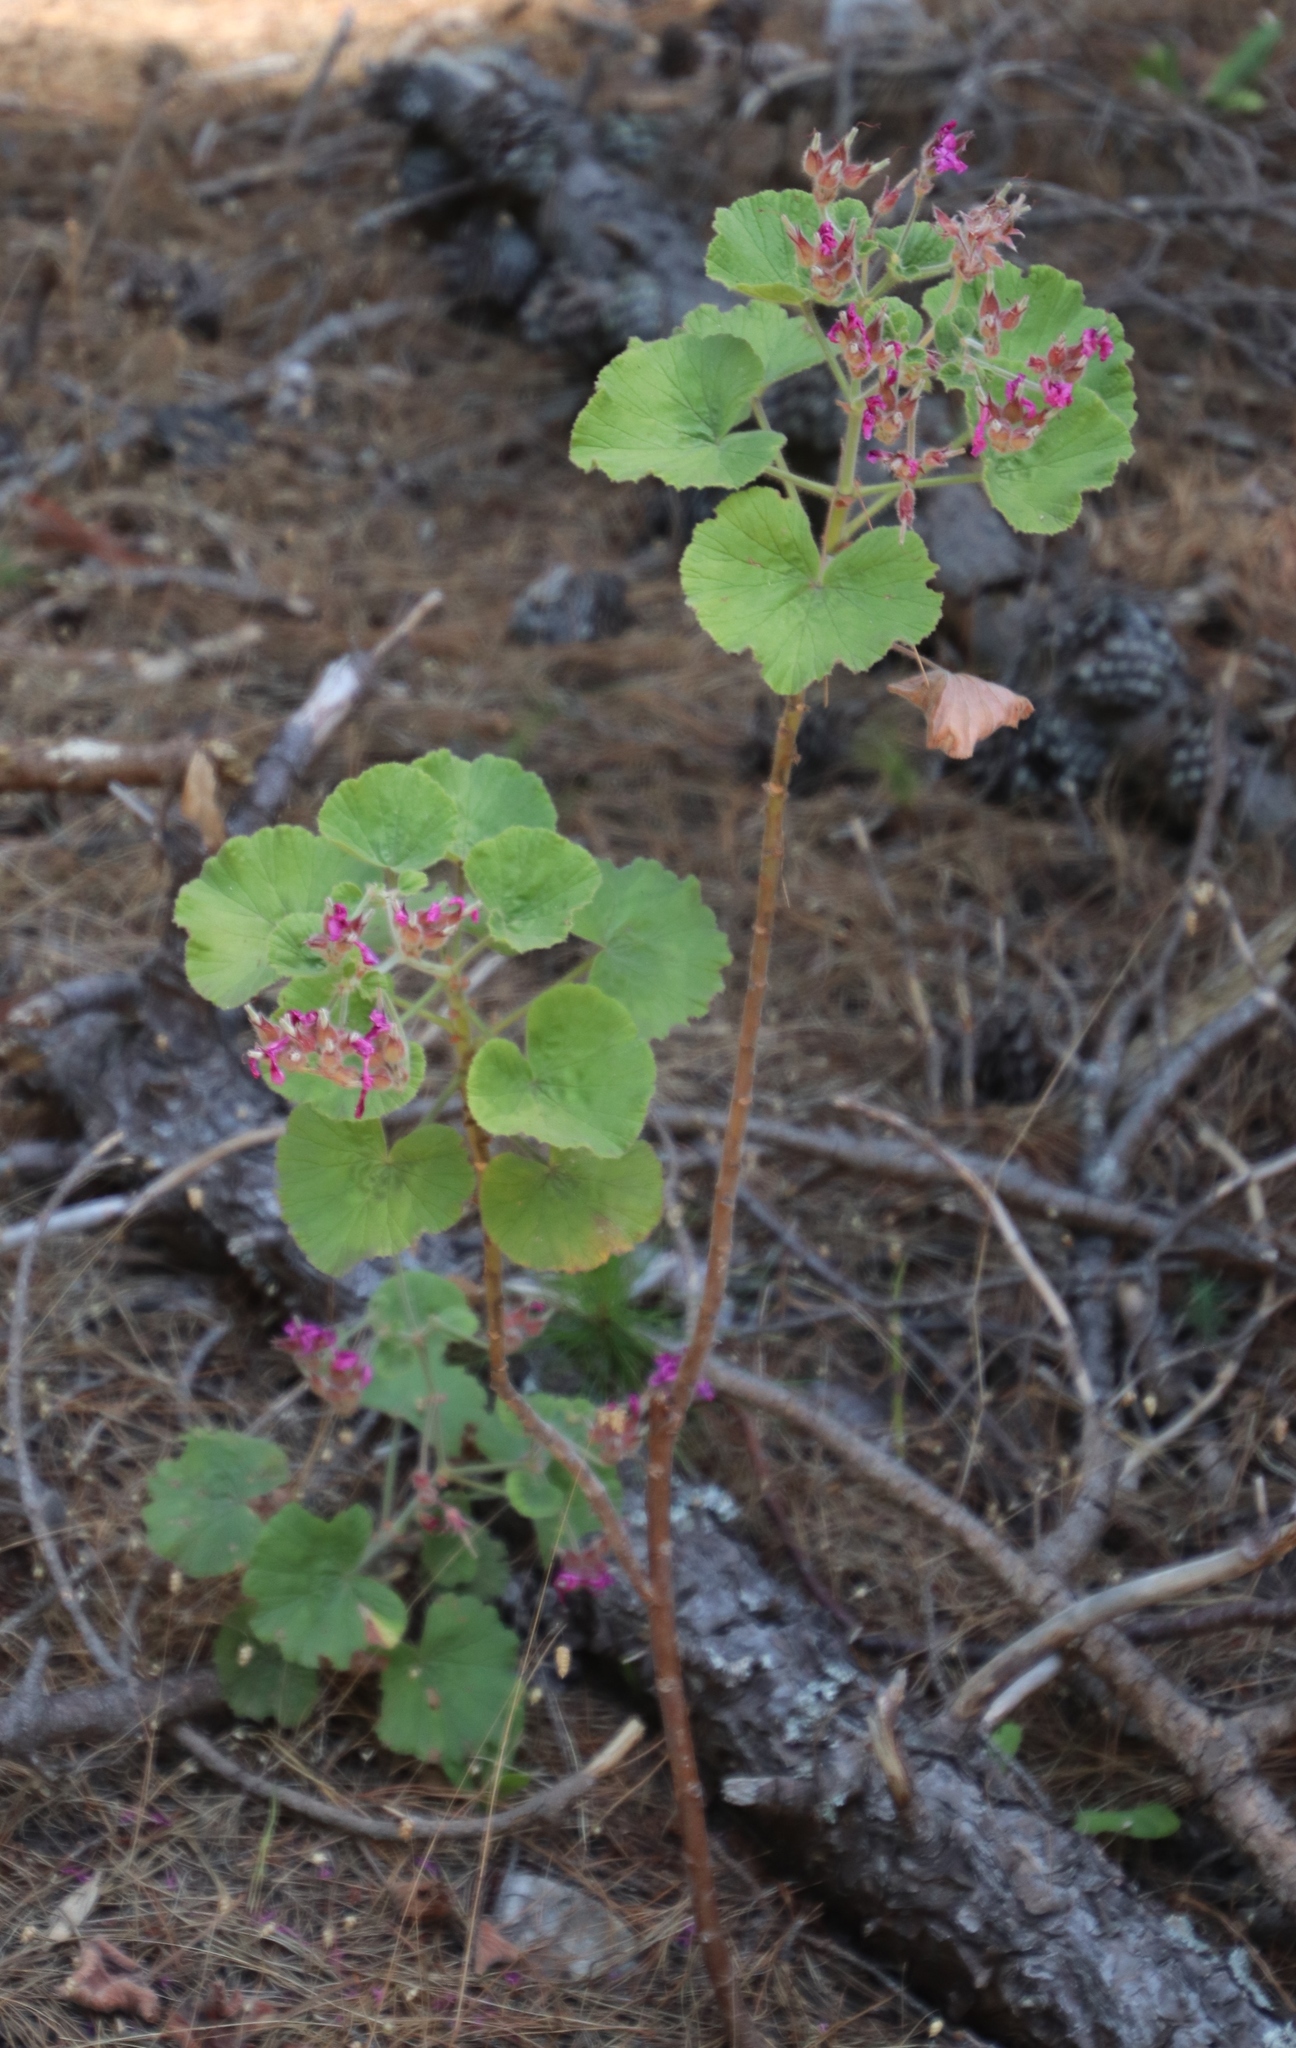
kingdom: Plantae
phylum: Tracheophyta
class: Magnoliopsida
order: Geraniales
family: Geraniaceae
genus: Pelargonium
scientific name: Pelargonium cucullatum
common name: Tree pelargonium
